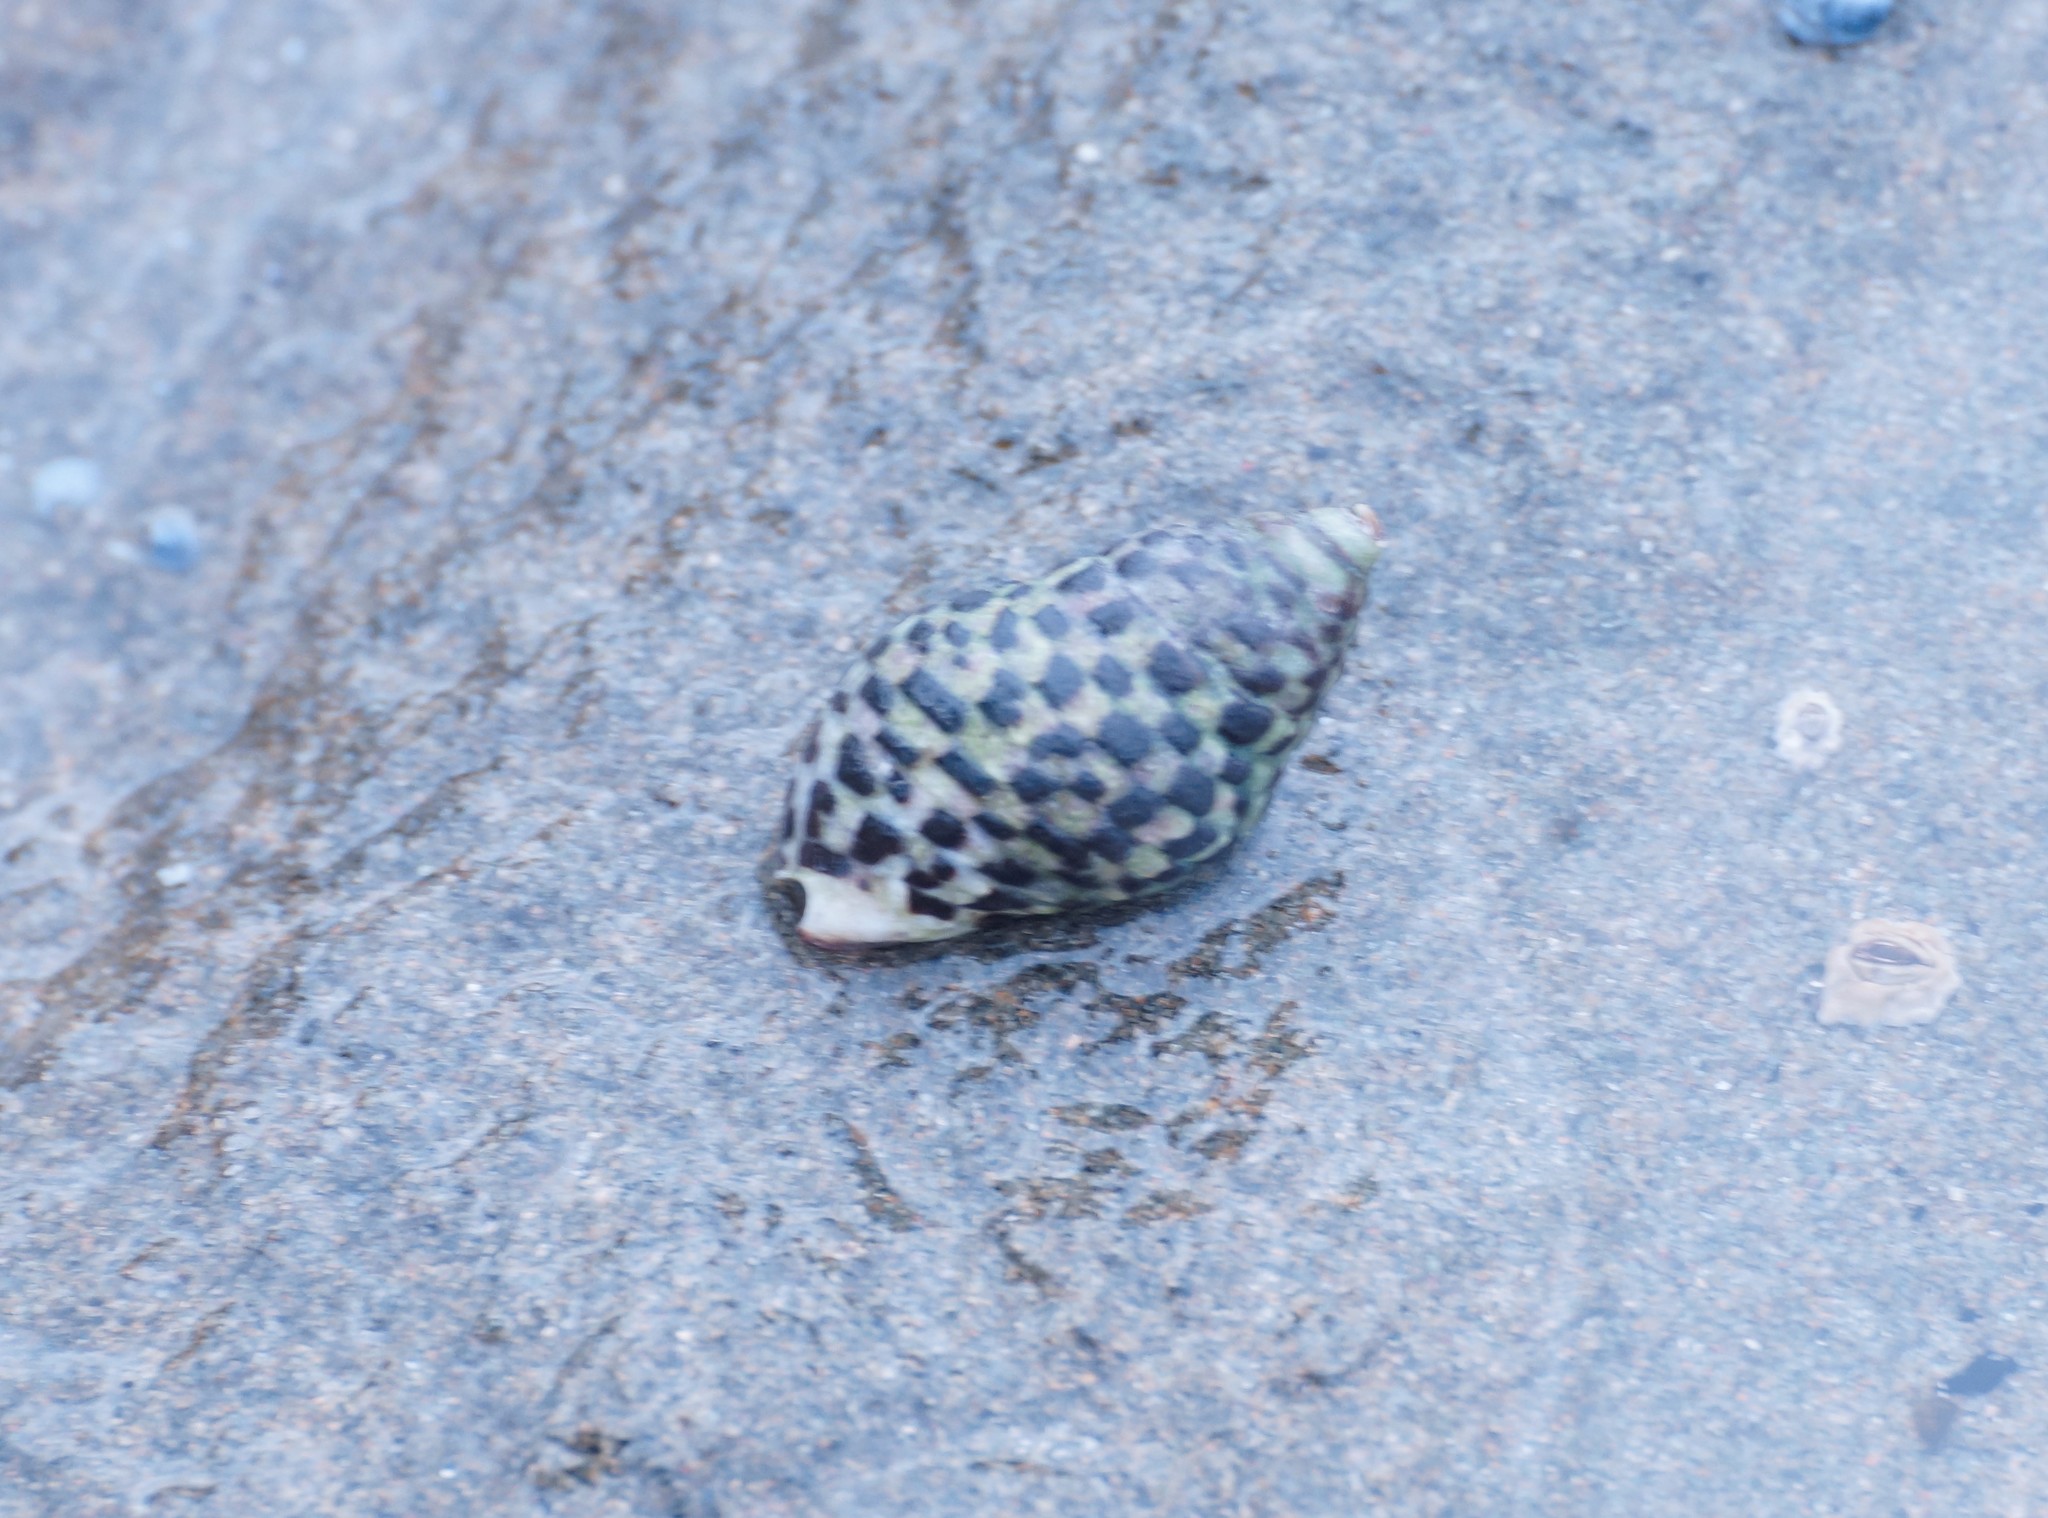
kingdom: Animalia
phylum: Mollusca
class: Gastropoda
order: Neogastropoda
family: Cominellidae
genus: Cominella
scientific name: Cominella lineolata
